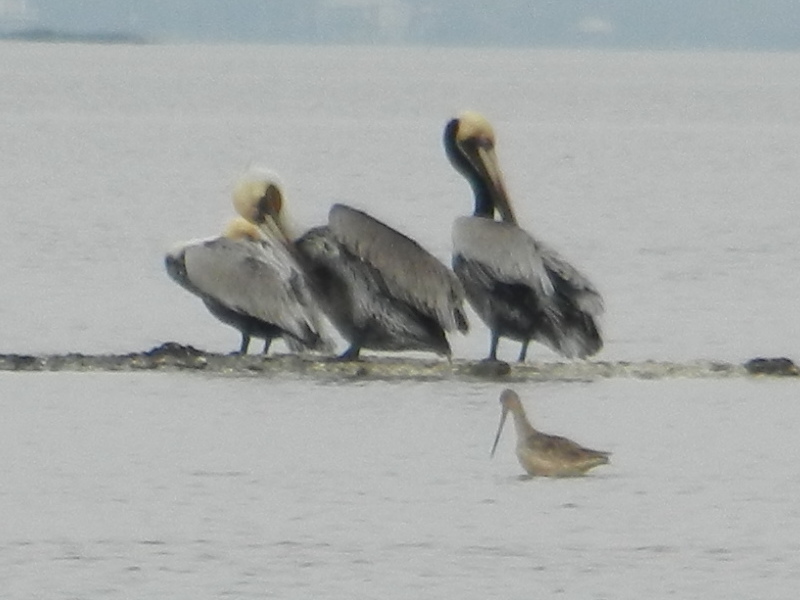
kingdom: Animalia
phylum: Chordata
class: Aves
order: Pelecaniformes
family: Pelecanidae
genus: Pelecanus
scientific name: Pelecanus occidentalis
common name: Brown pelican
